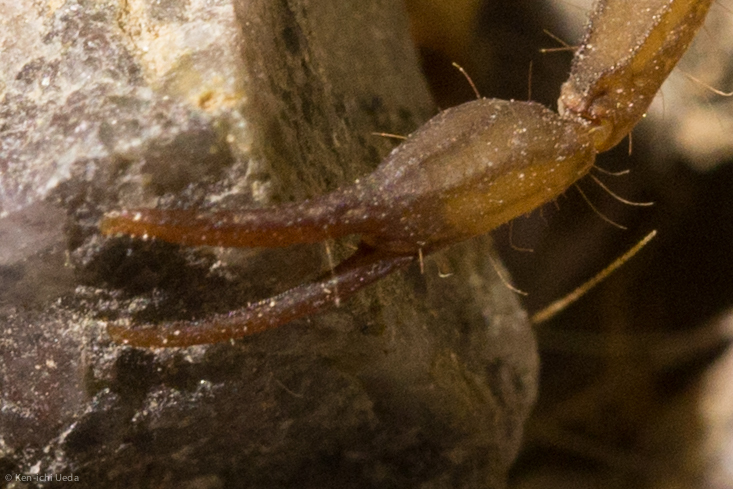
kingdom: Animalia
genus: Vaejovis
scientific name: Vaejovis brysoni
